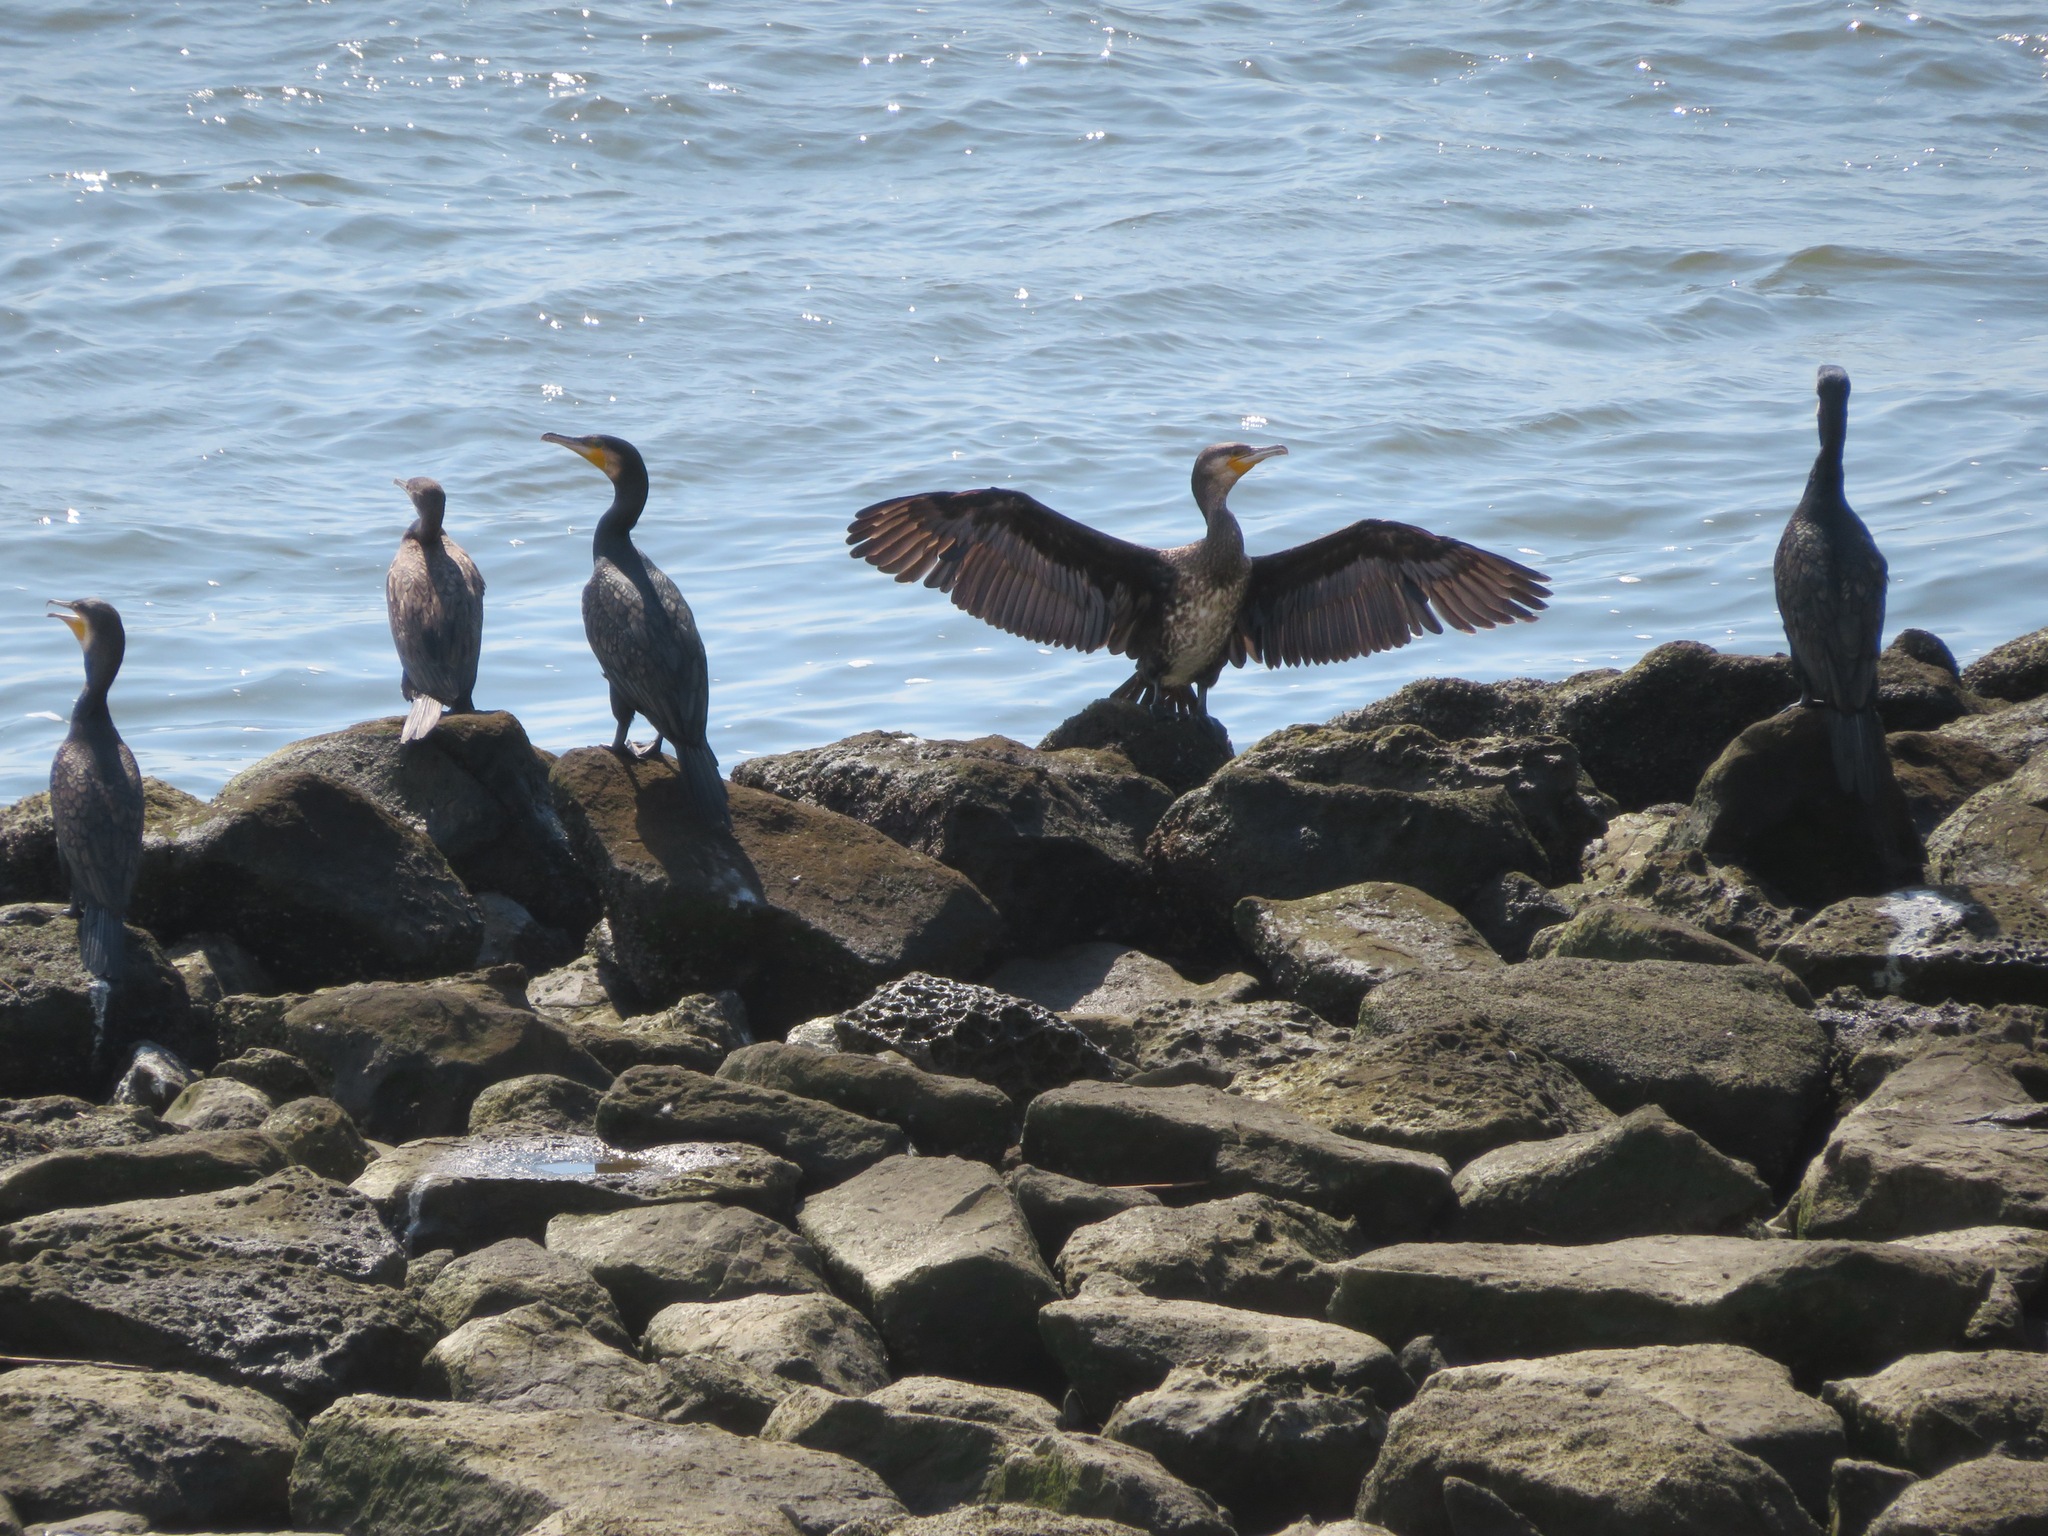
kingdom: Animalia
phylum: Chordata
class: Aves
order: Suliformes
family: Phalacrocoracidae
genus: Phalacrocorax
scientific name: Phalacrocorax carbo
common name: Great cormorant
